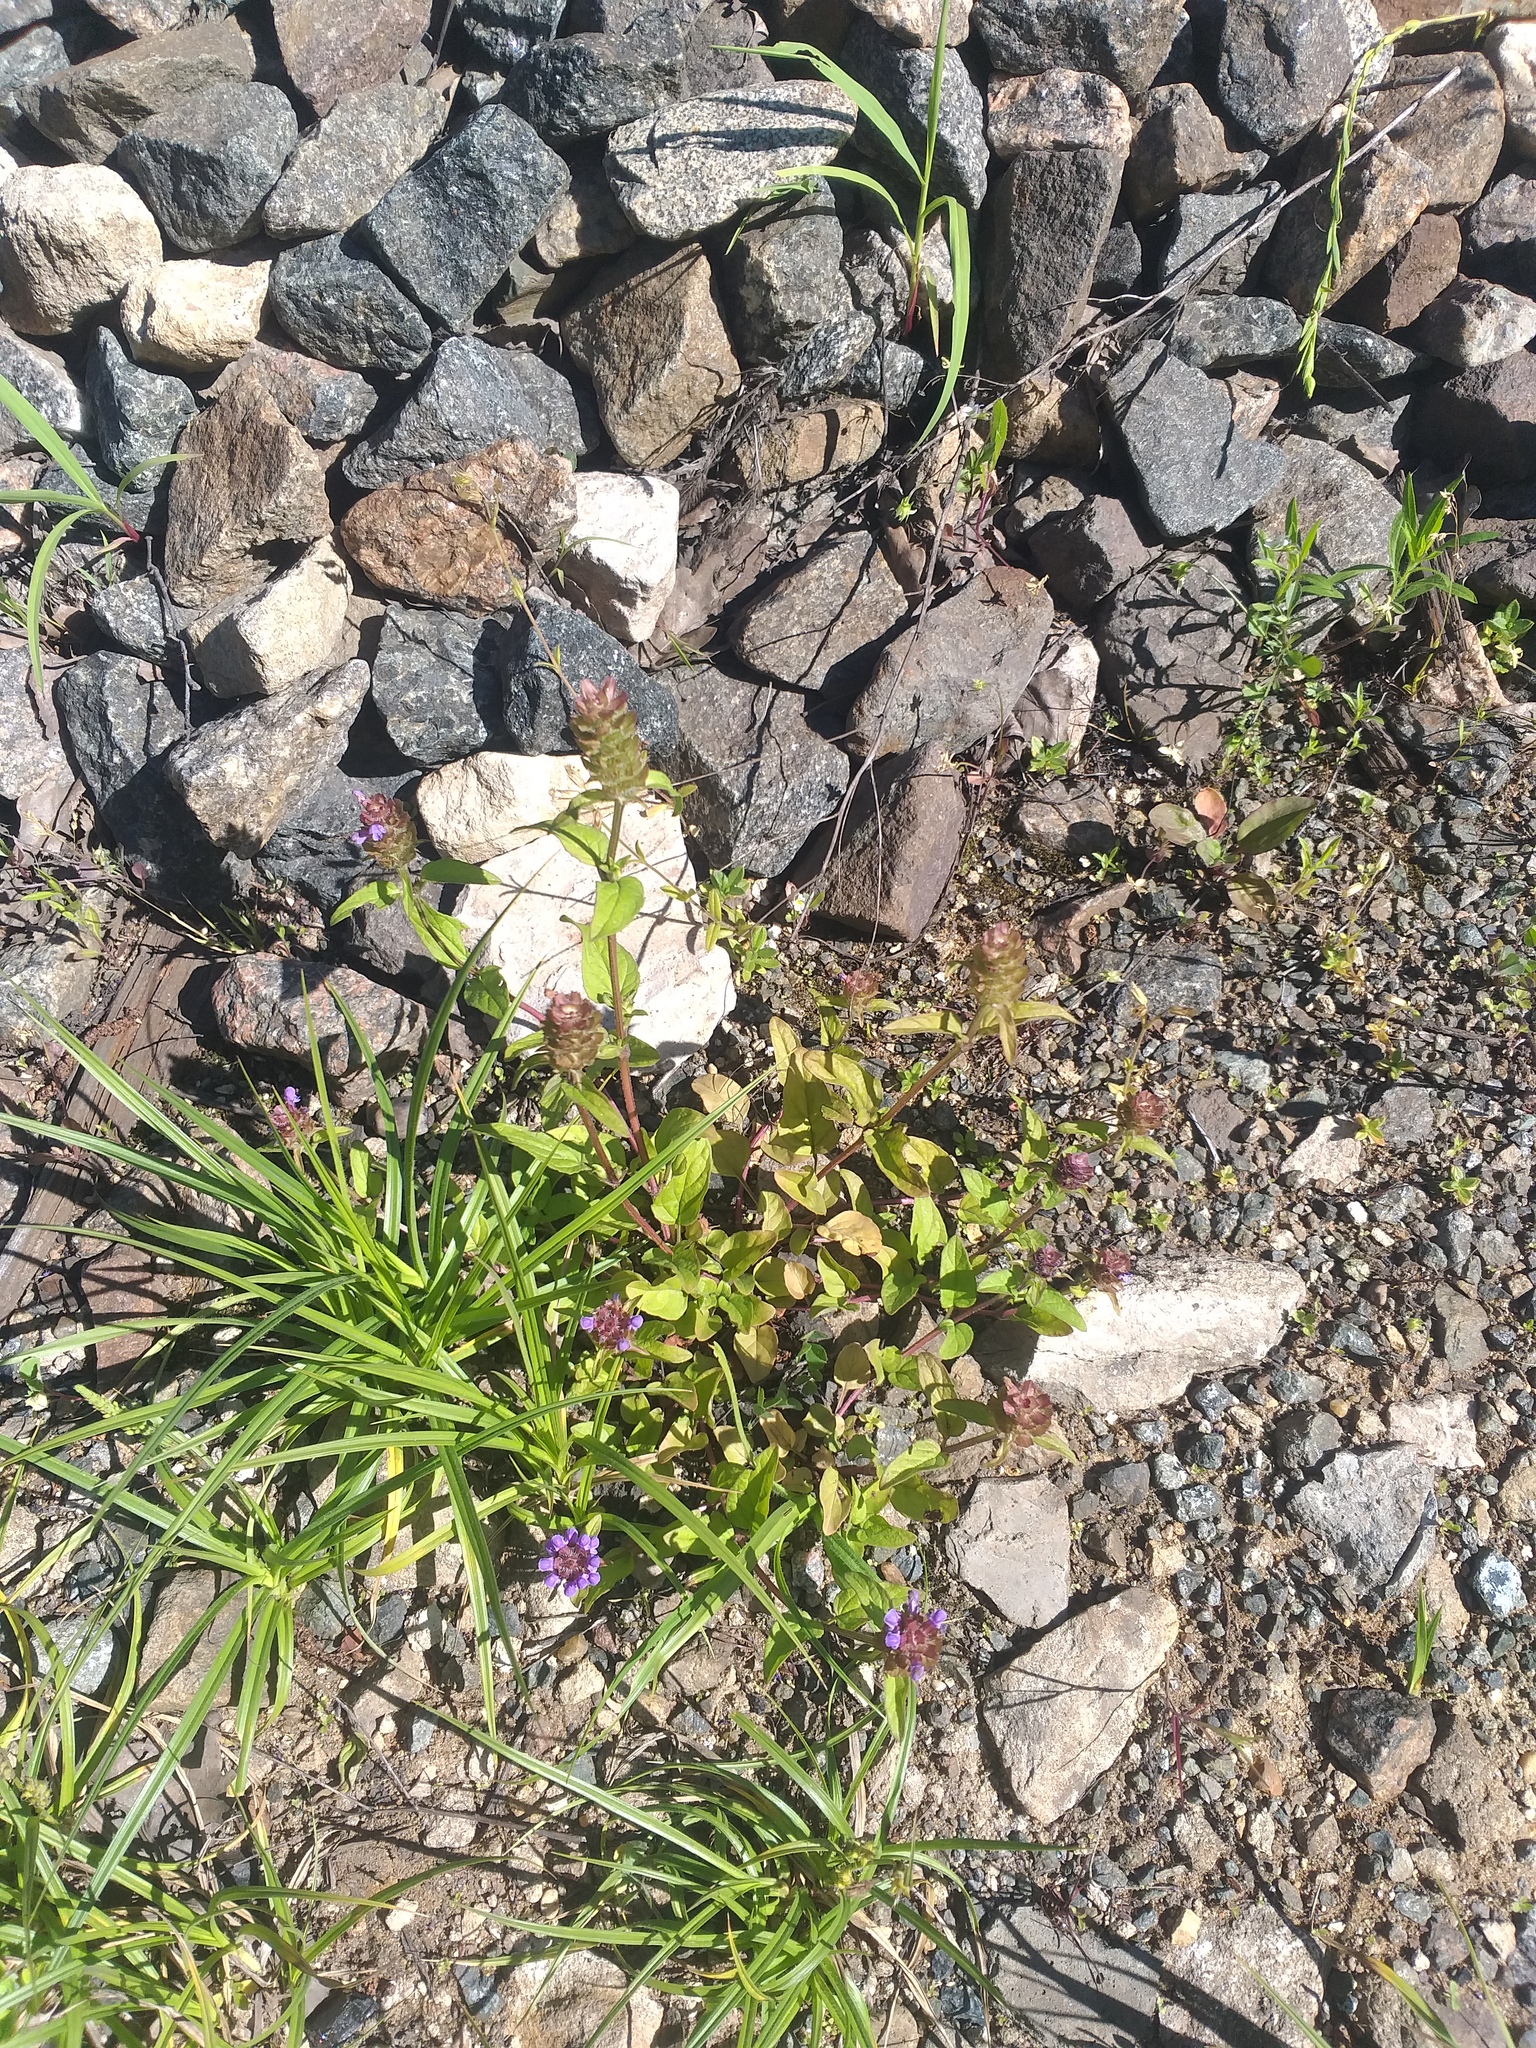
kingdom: Plantae
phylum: Tracheophyta
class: Magnoliopsida
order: Lamiales
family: Lamiaceae
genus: Prunella
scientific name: Prunella vulgaris
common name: Heal-all
